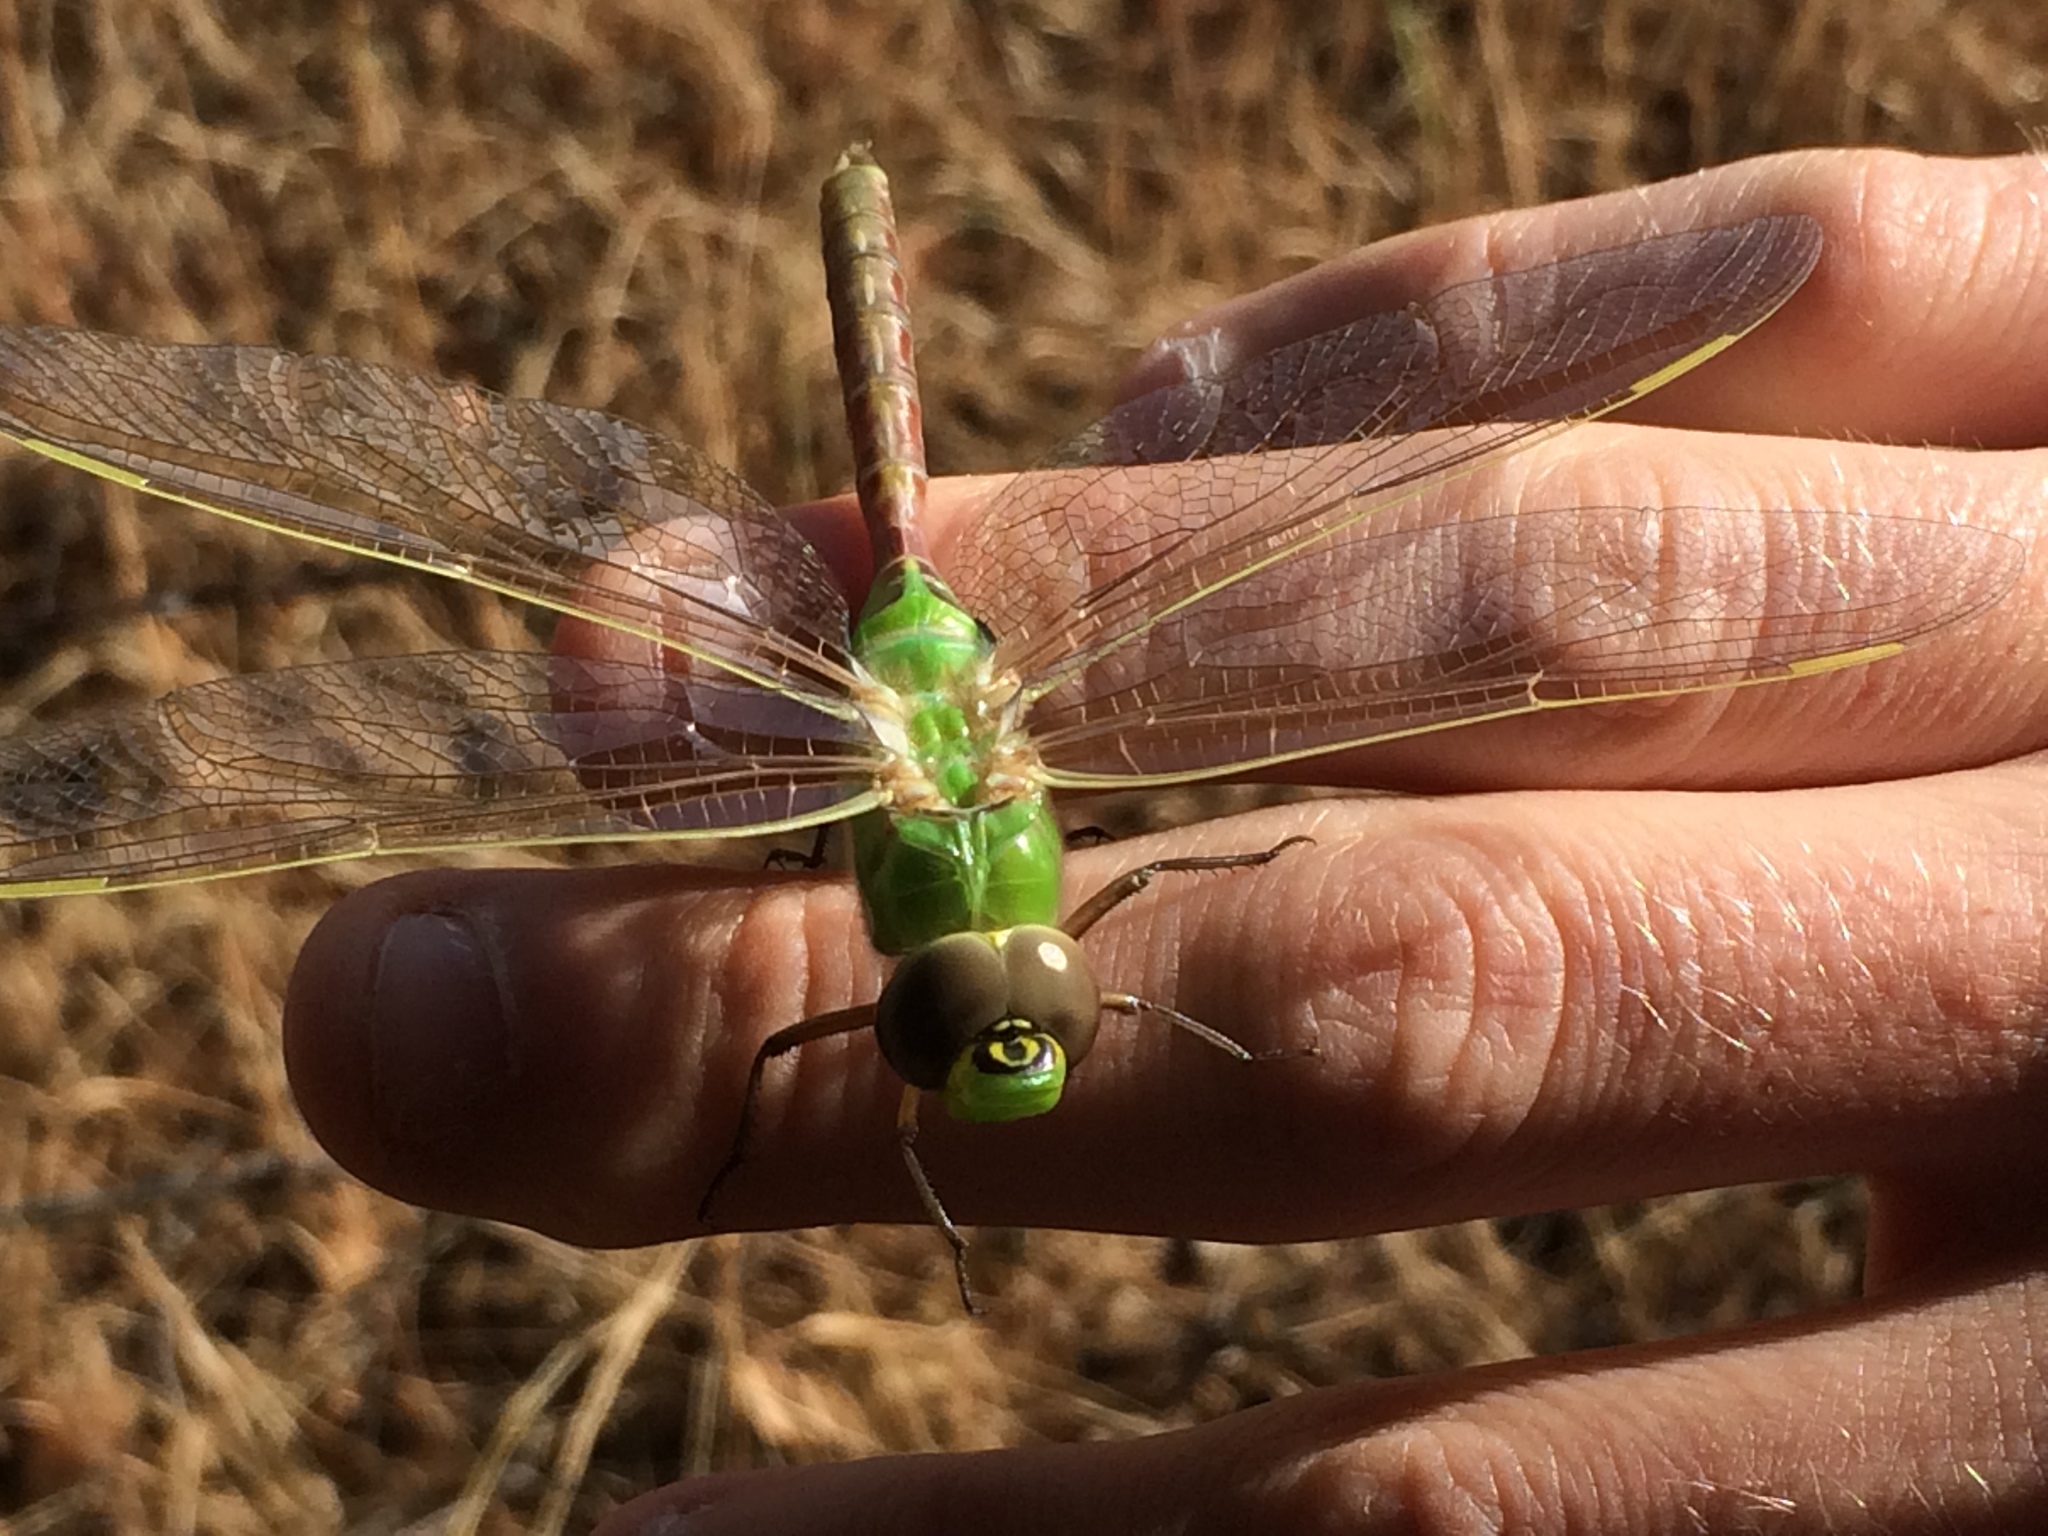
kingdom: Animalia
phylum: Arthropoda
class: Insecta
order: Odonata
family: Aeshnidae
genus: Anax
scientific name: Anax junius
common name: Common green darner
